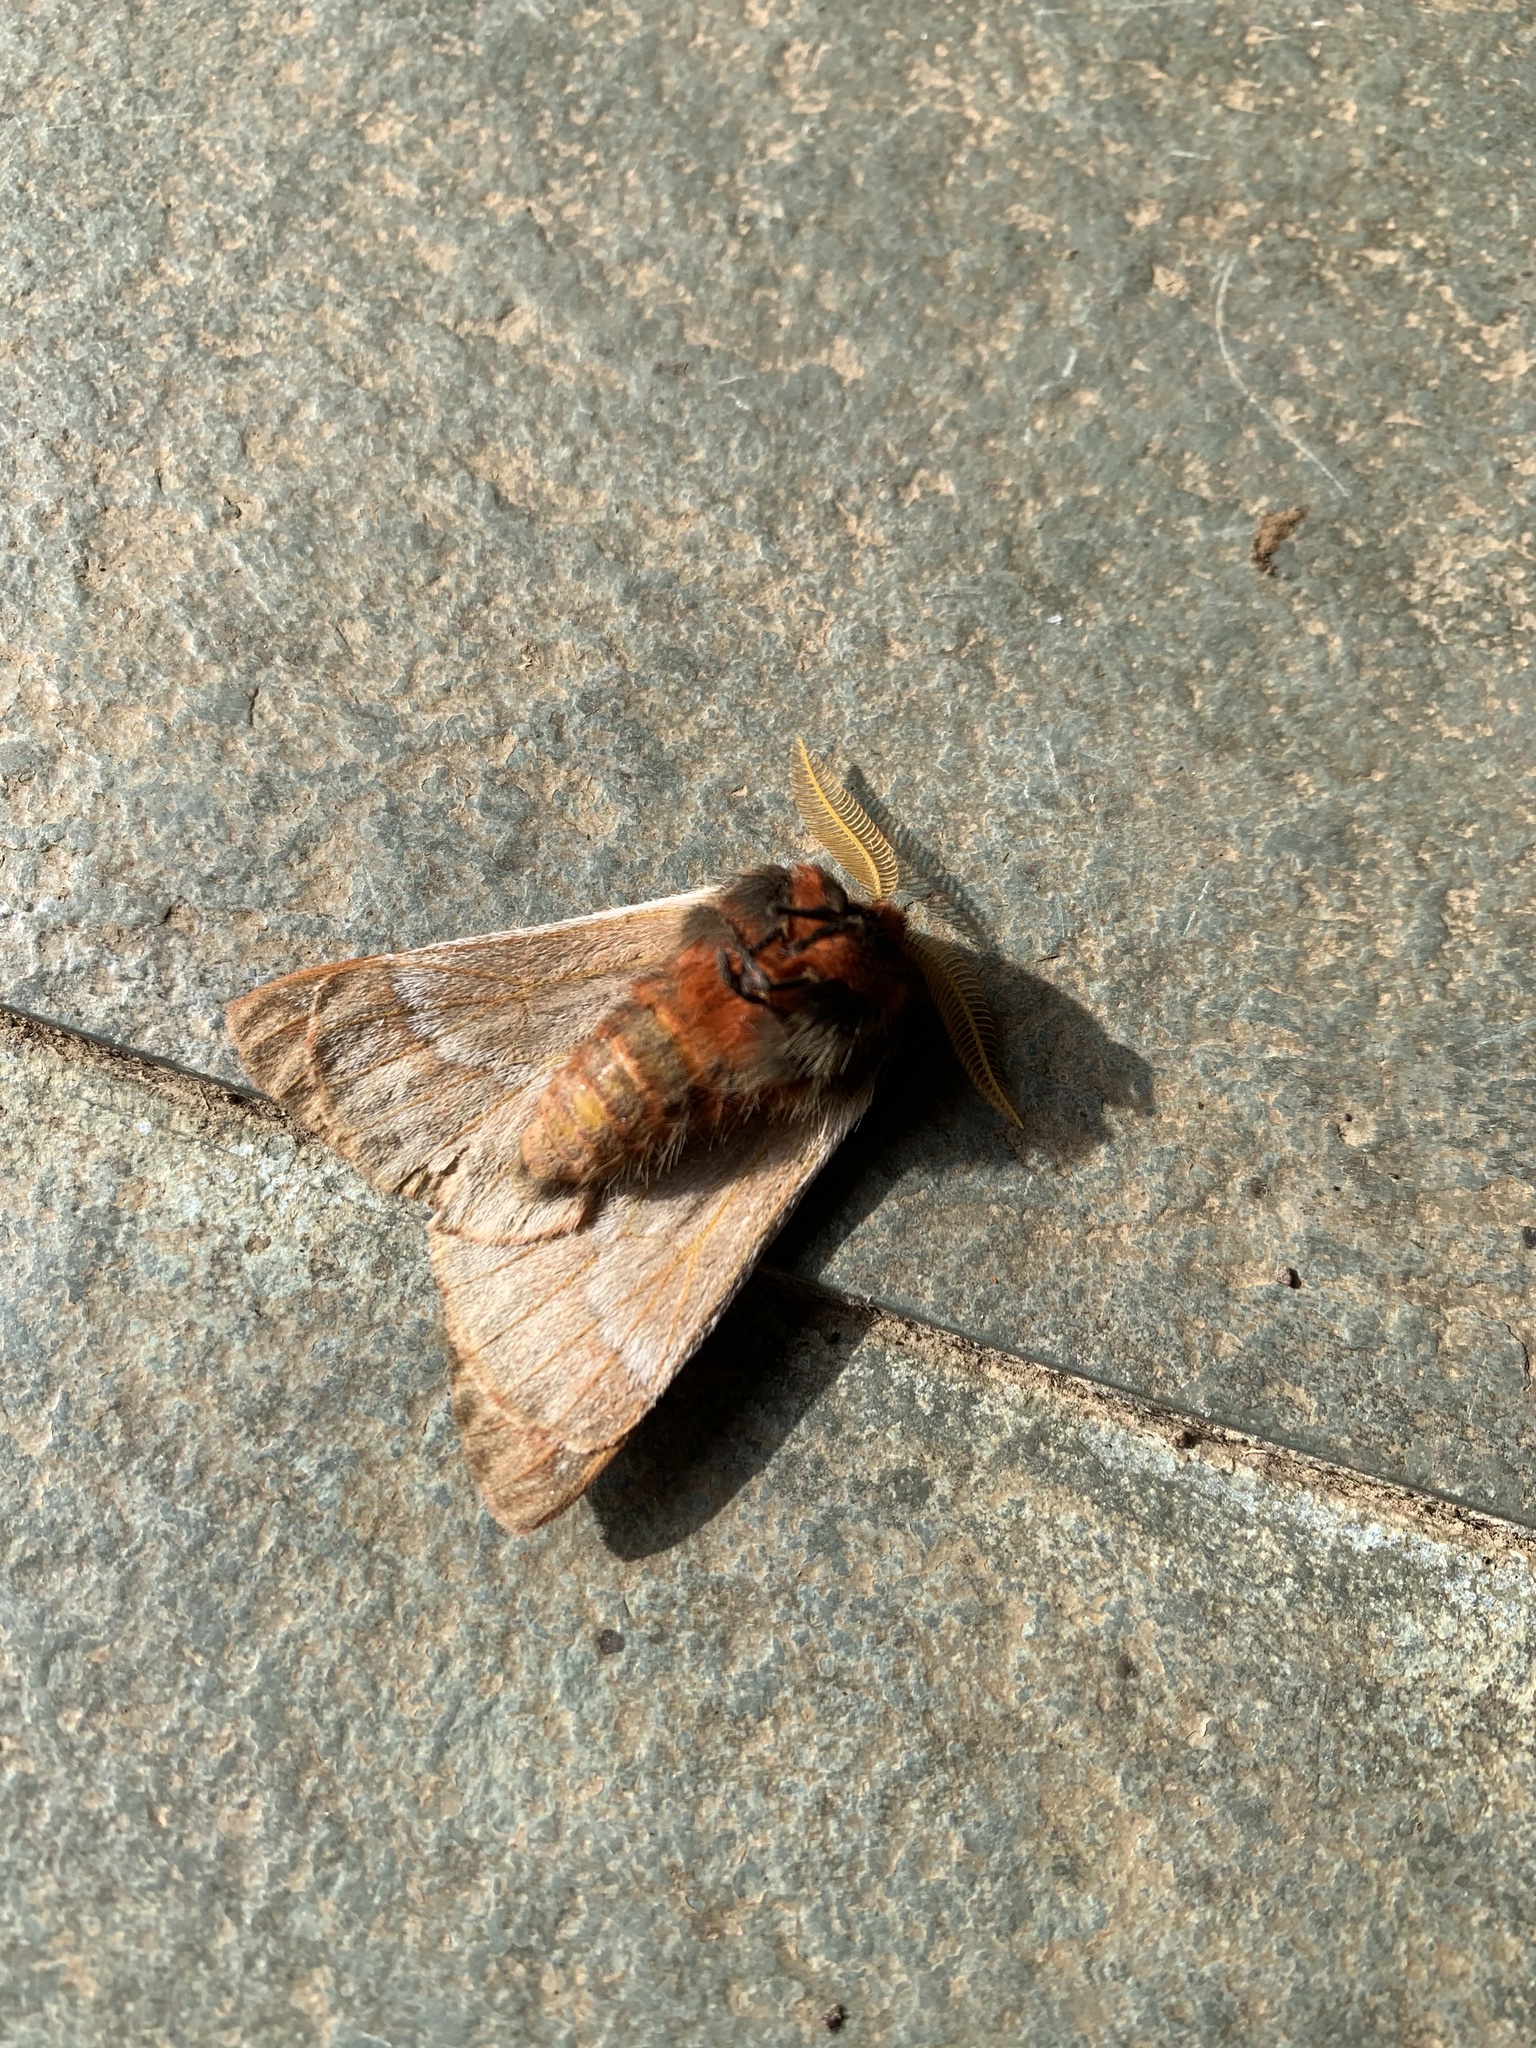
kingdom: Animalia
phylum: Arthropoda
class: Insecta
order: Lepidoptera
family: Saturniidae
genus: Ormiscodes
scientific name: Ormiscodes joiceyi
